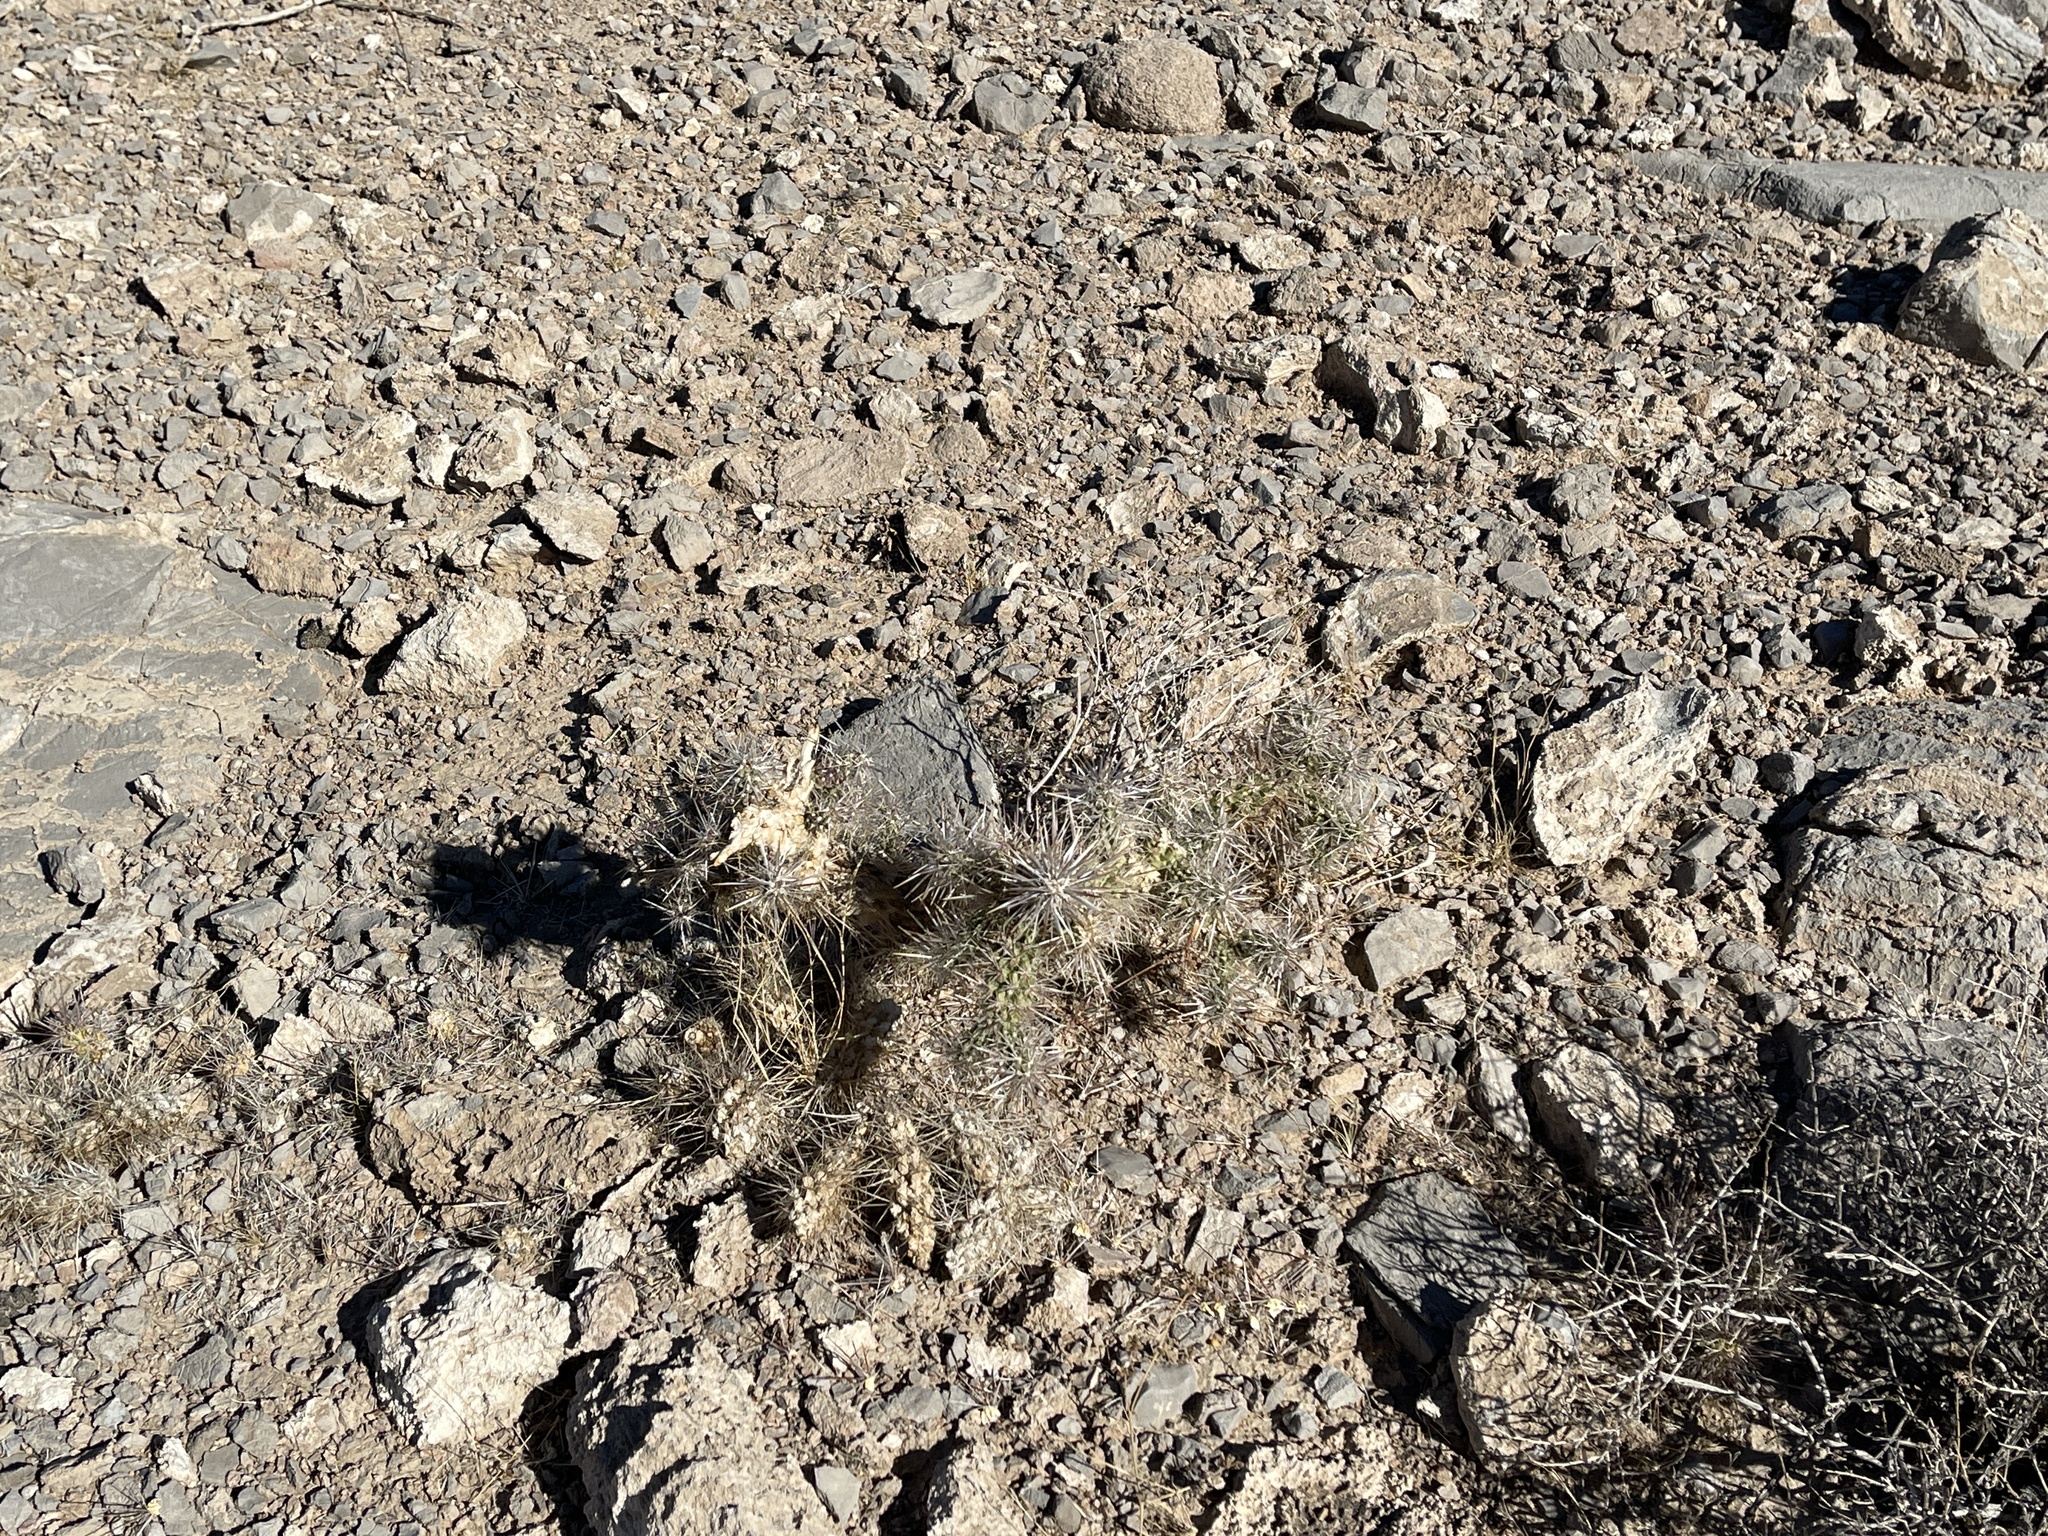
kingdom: Plantae
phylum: Tracheophyta
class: Magnoliopsida
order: Caryophyllales
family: Cactaceae
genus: Cylindropuntia
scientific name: Cylindropuntia echinocarpa
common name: Ground cholla
